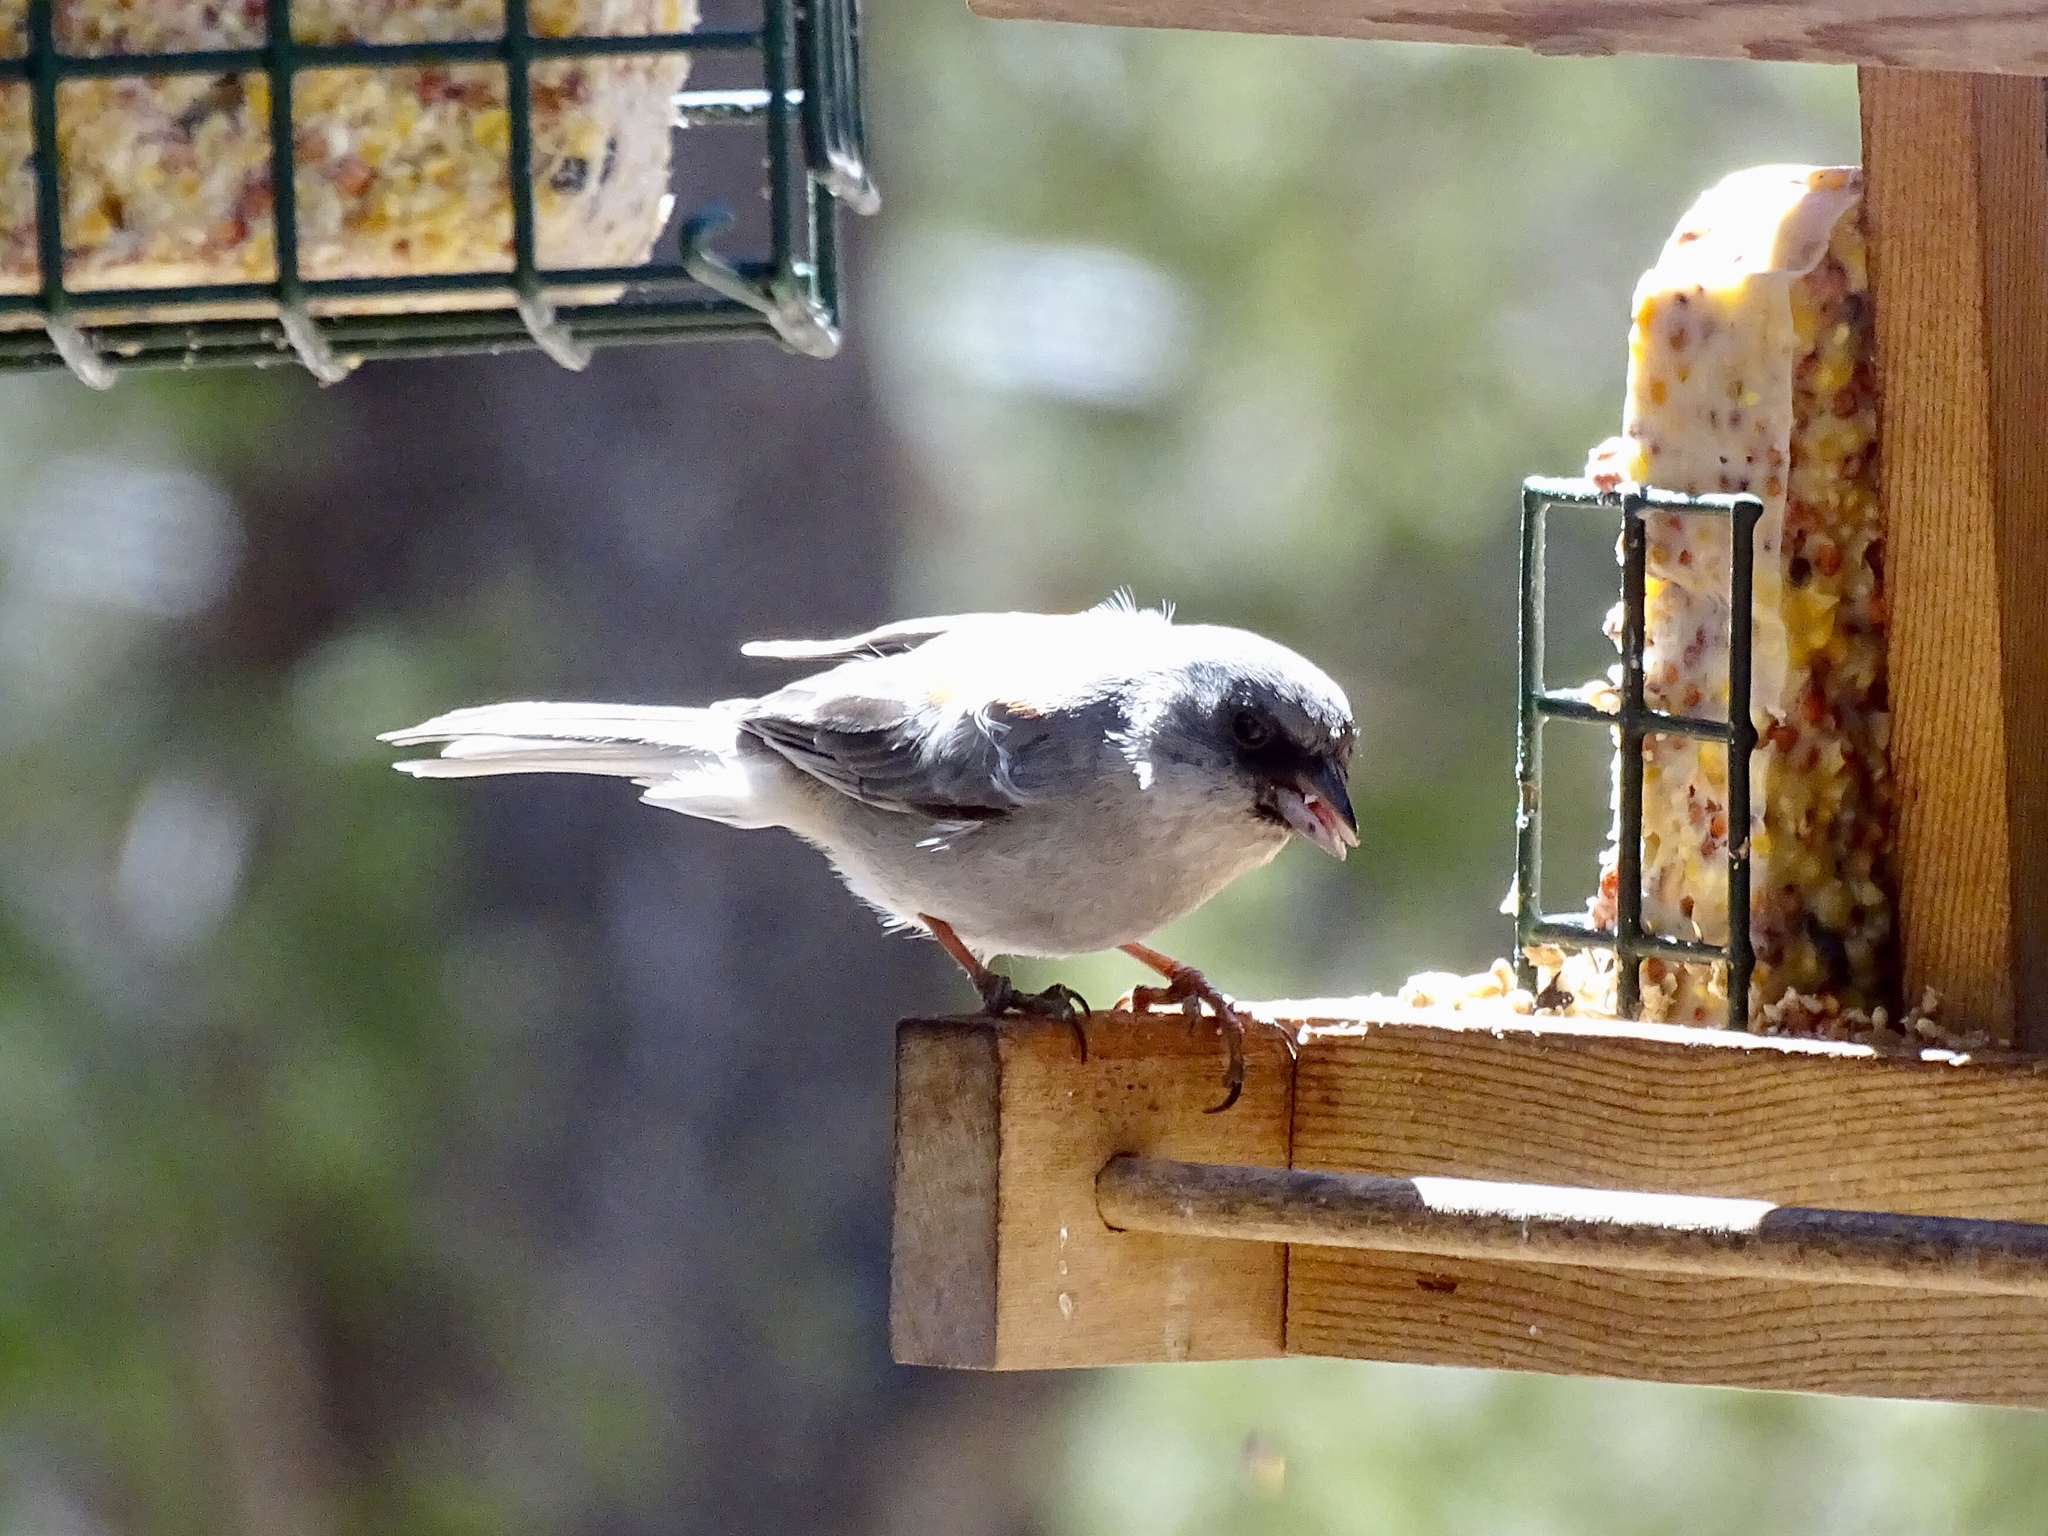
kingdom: Animalia
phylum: Chordata
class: Aves
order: Passeriformes
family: Passerellidae
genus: Junco
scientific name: Junco hyemalis
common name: Dark-eyed junco
